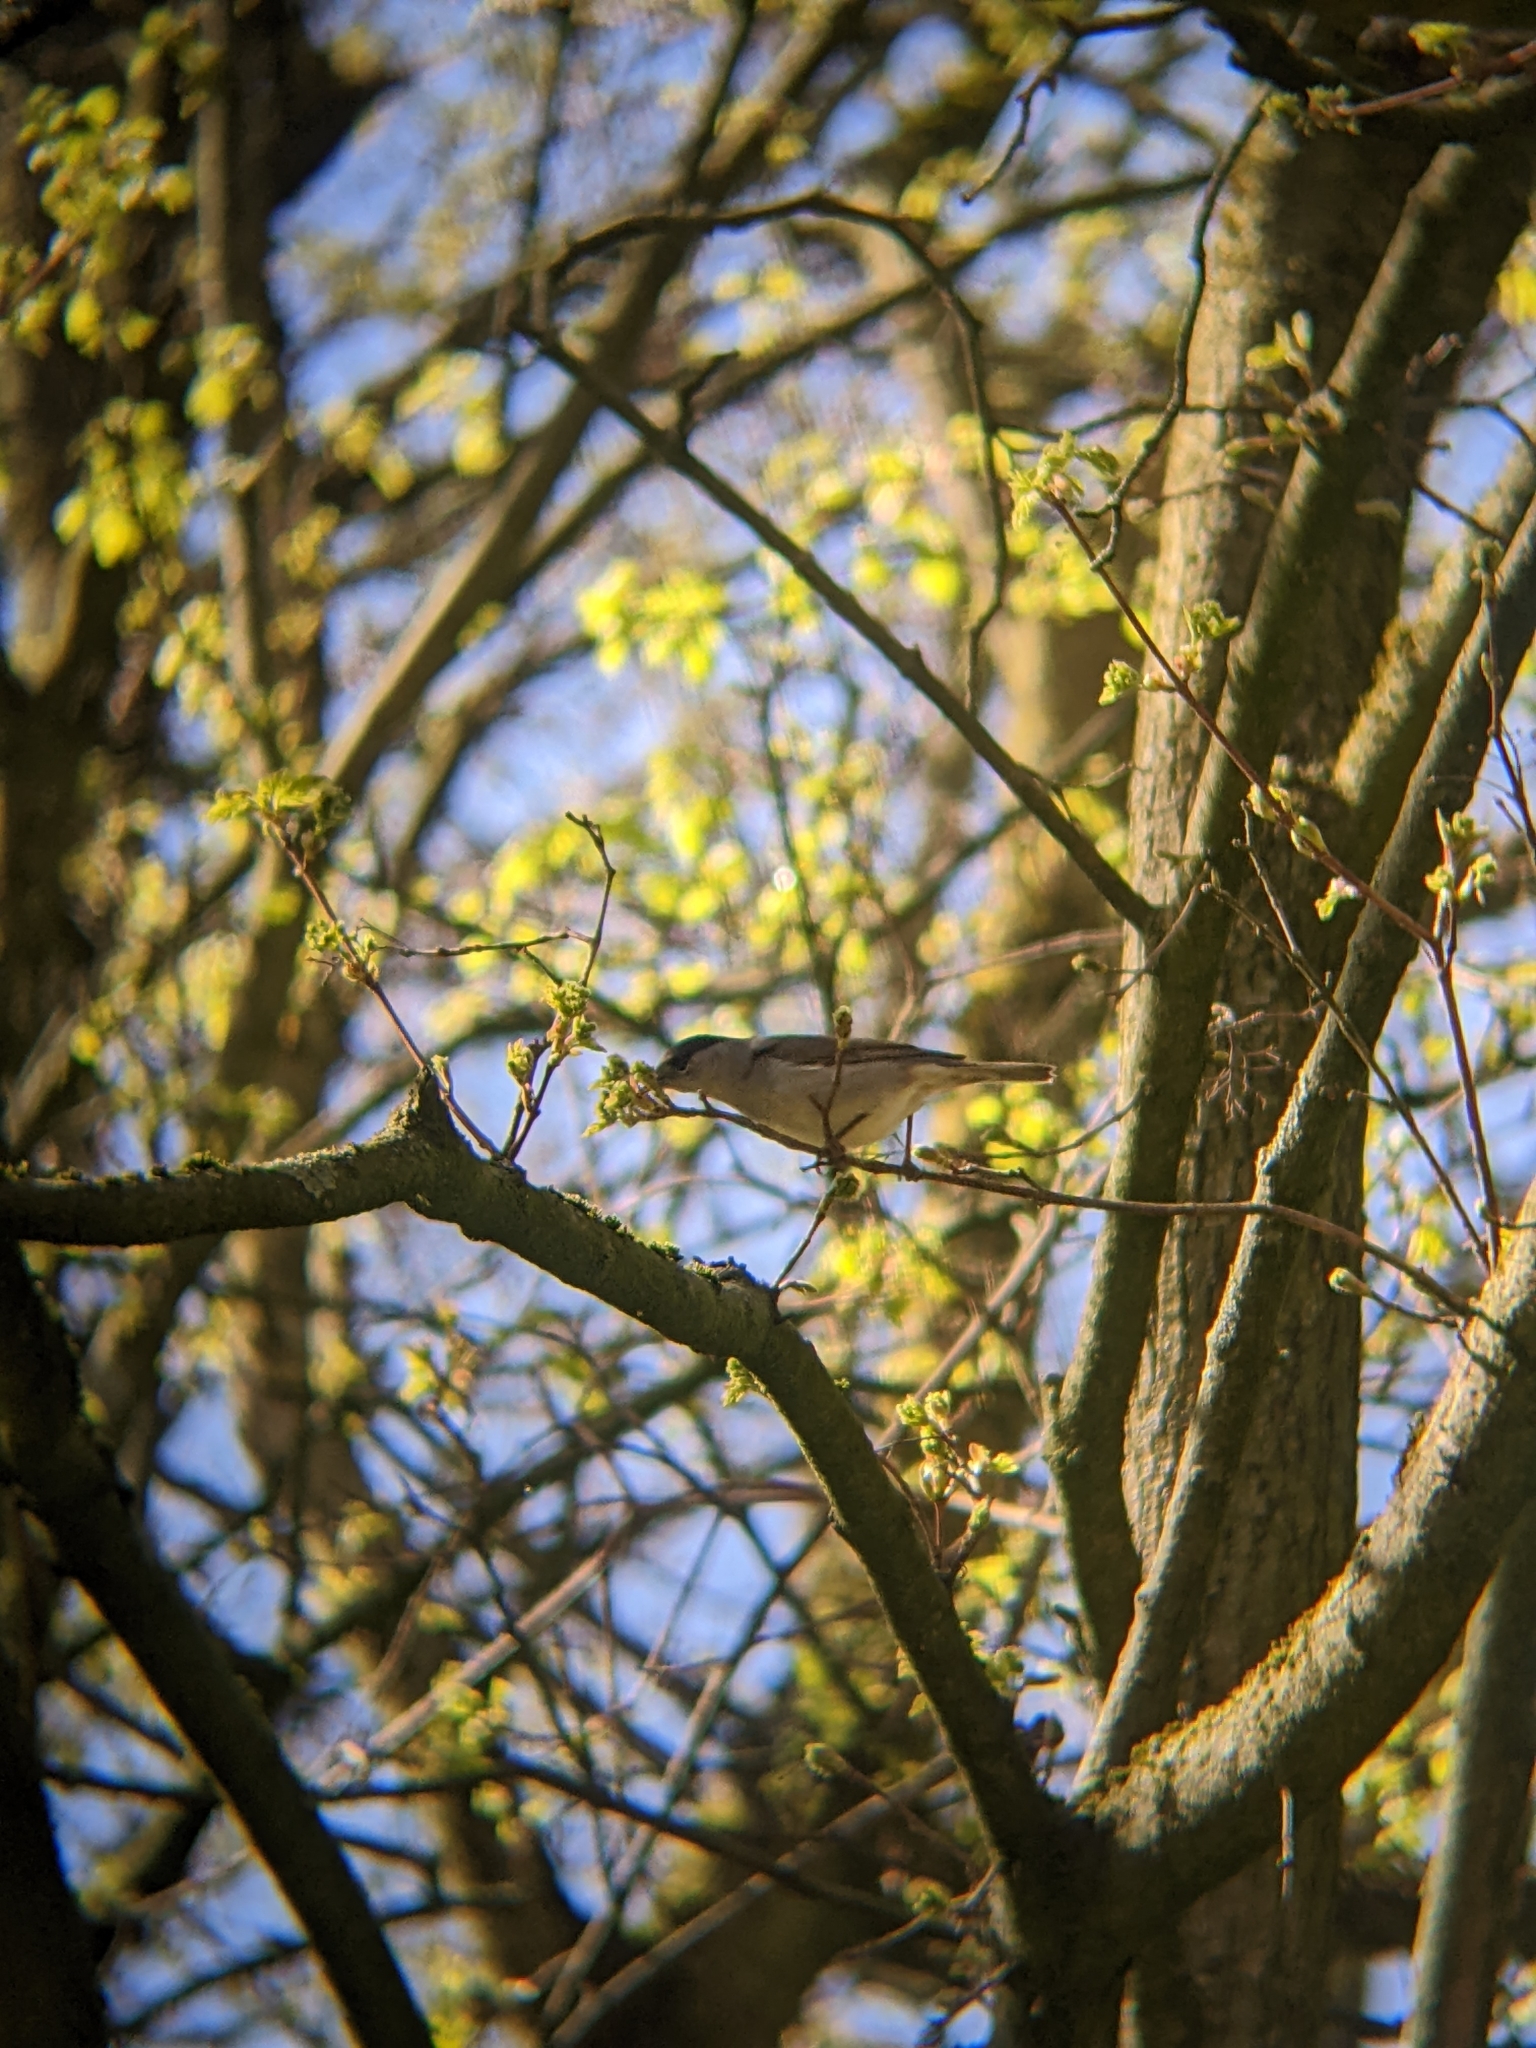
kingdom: Animalia
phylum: Chordata
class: Aves
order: Passeriformes
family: Sylviidae
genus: Sylvia
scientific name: Sylvia atricapilla
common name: Eurasian blackcap
